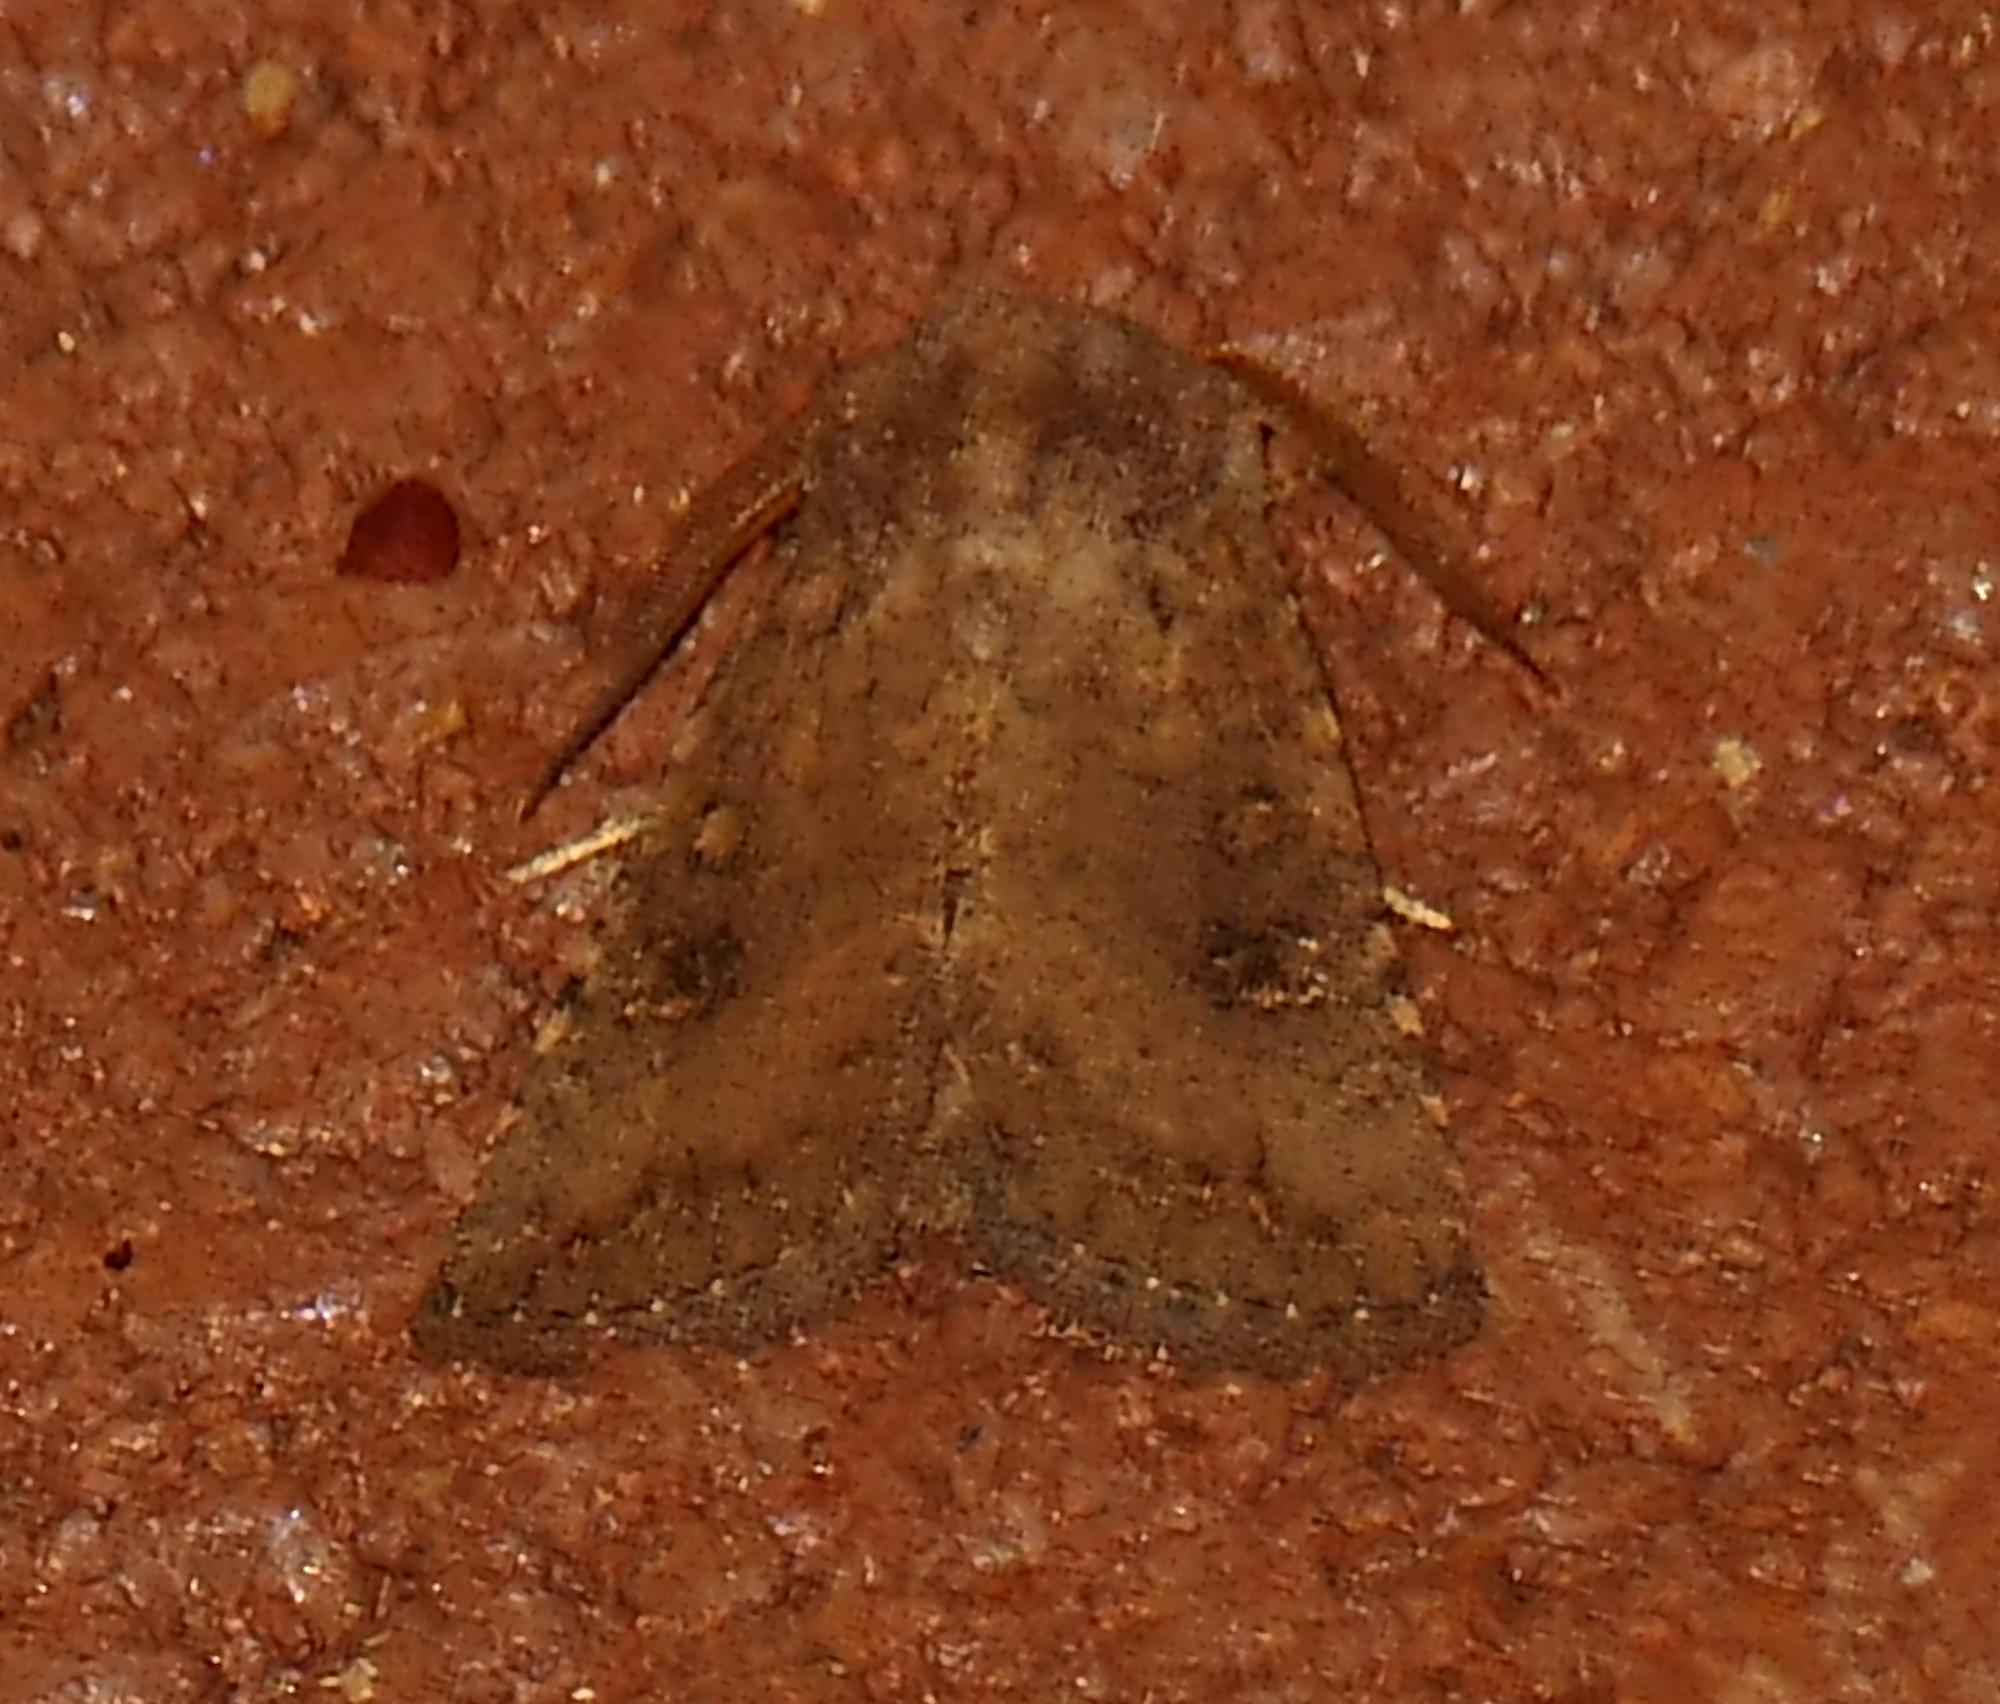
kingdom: Animalia
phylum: Arthropoda
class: Insecta
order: Lepidoptera
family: Noctuidae
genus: Trichopolia
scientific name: Trichopolia
